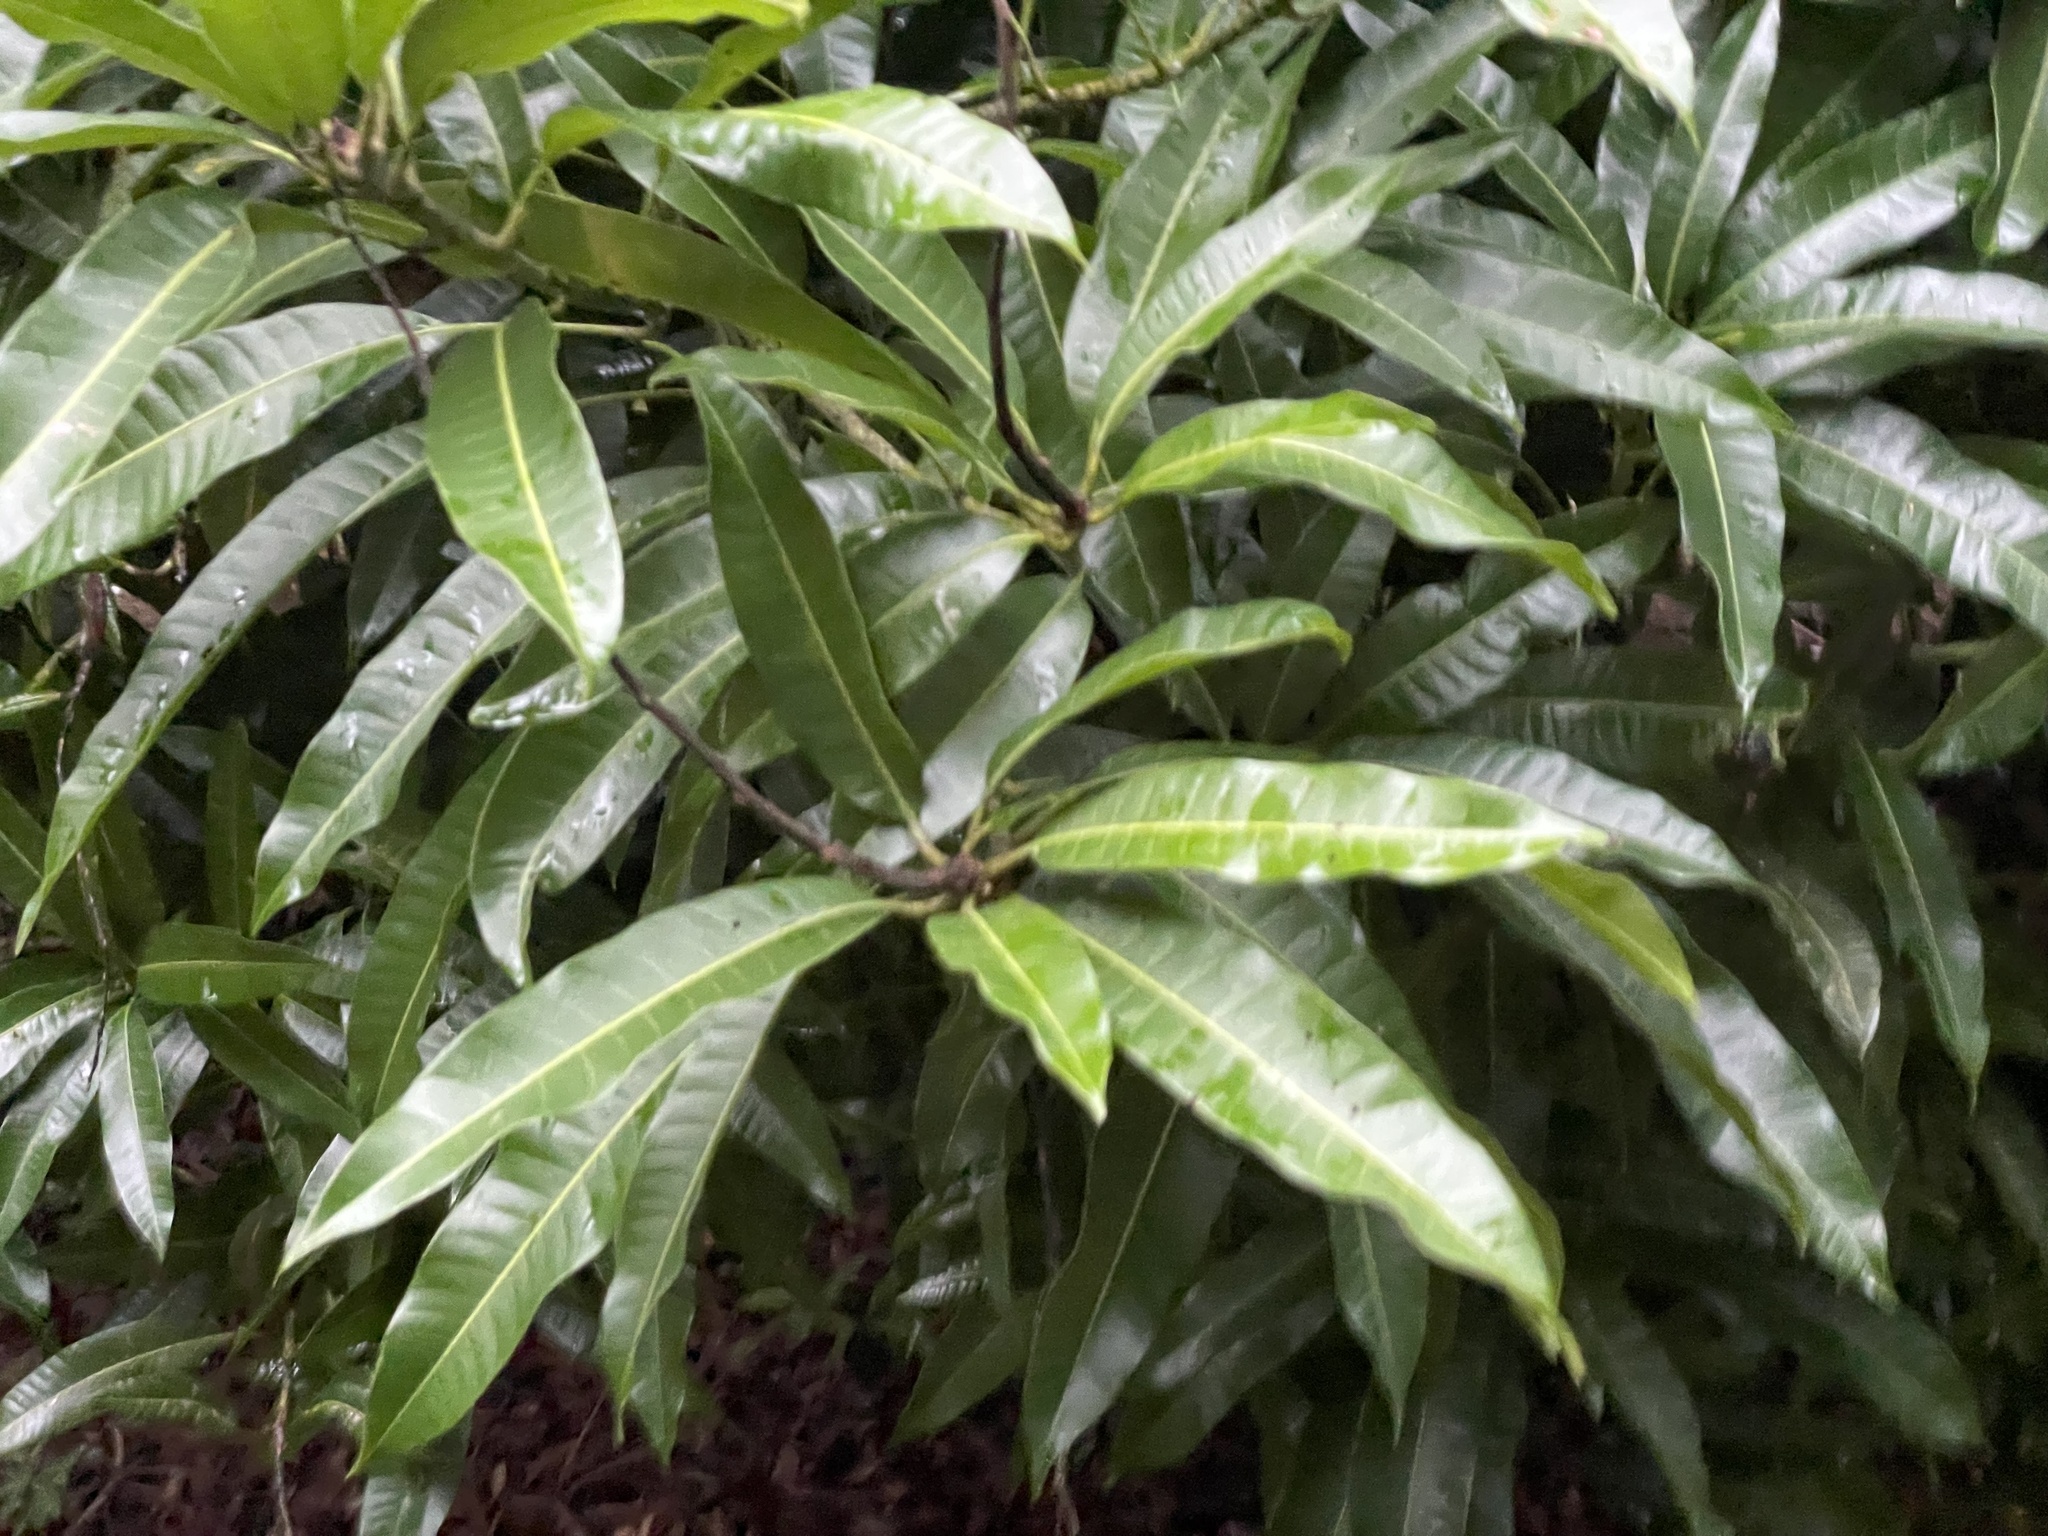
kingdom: Plantae
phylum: Tracheophyta
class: Magnoliopsida
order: Sapindales
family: Anacardiaceae
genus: Mangifera
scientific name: Mangifera indica
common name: Mango
